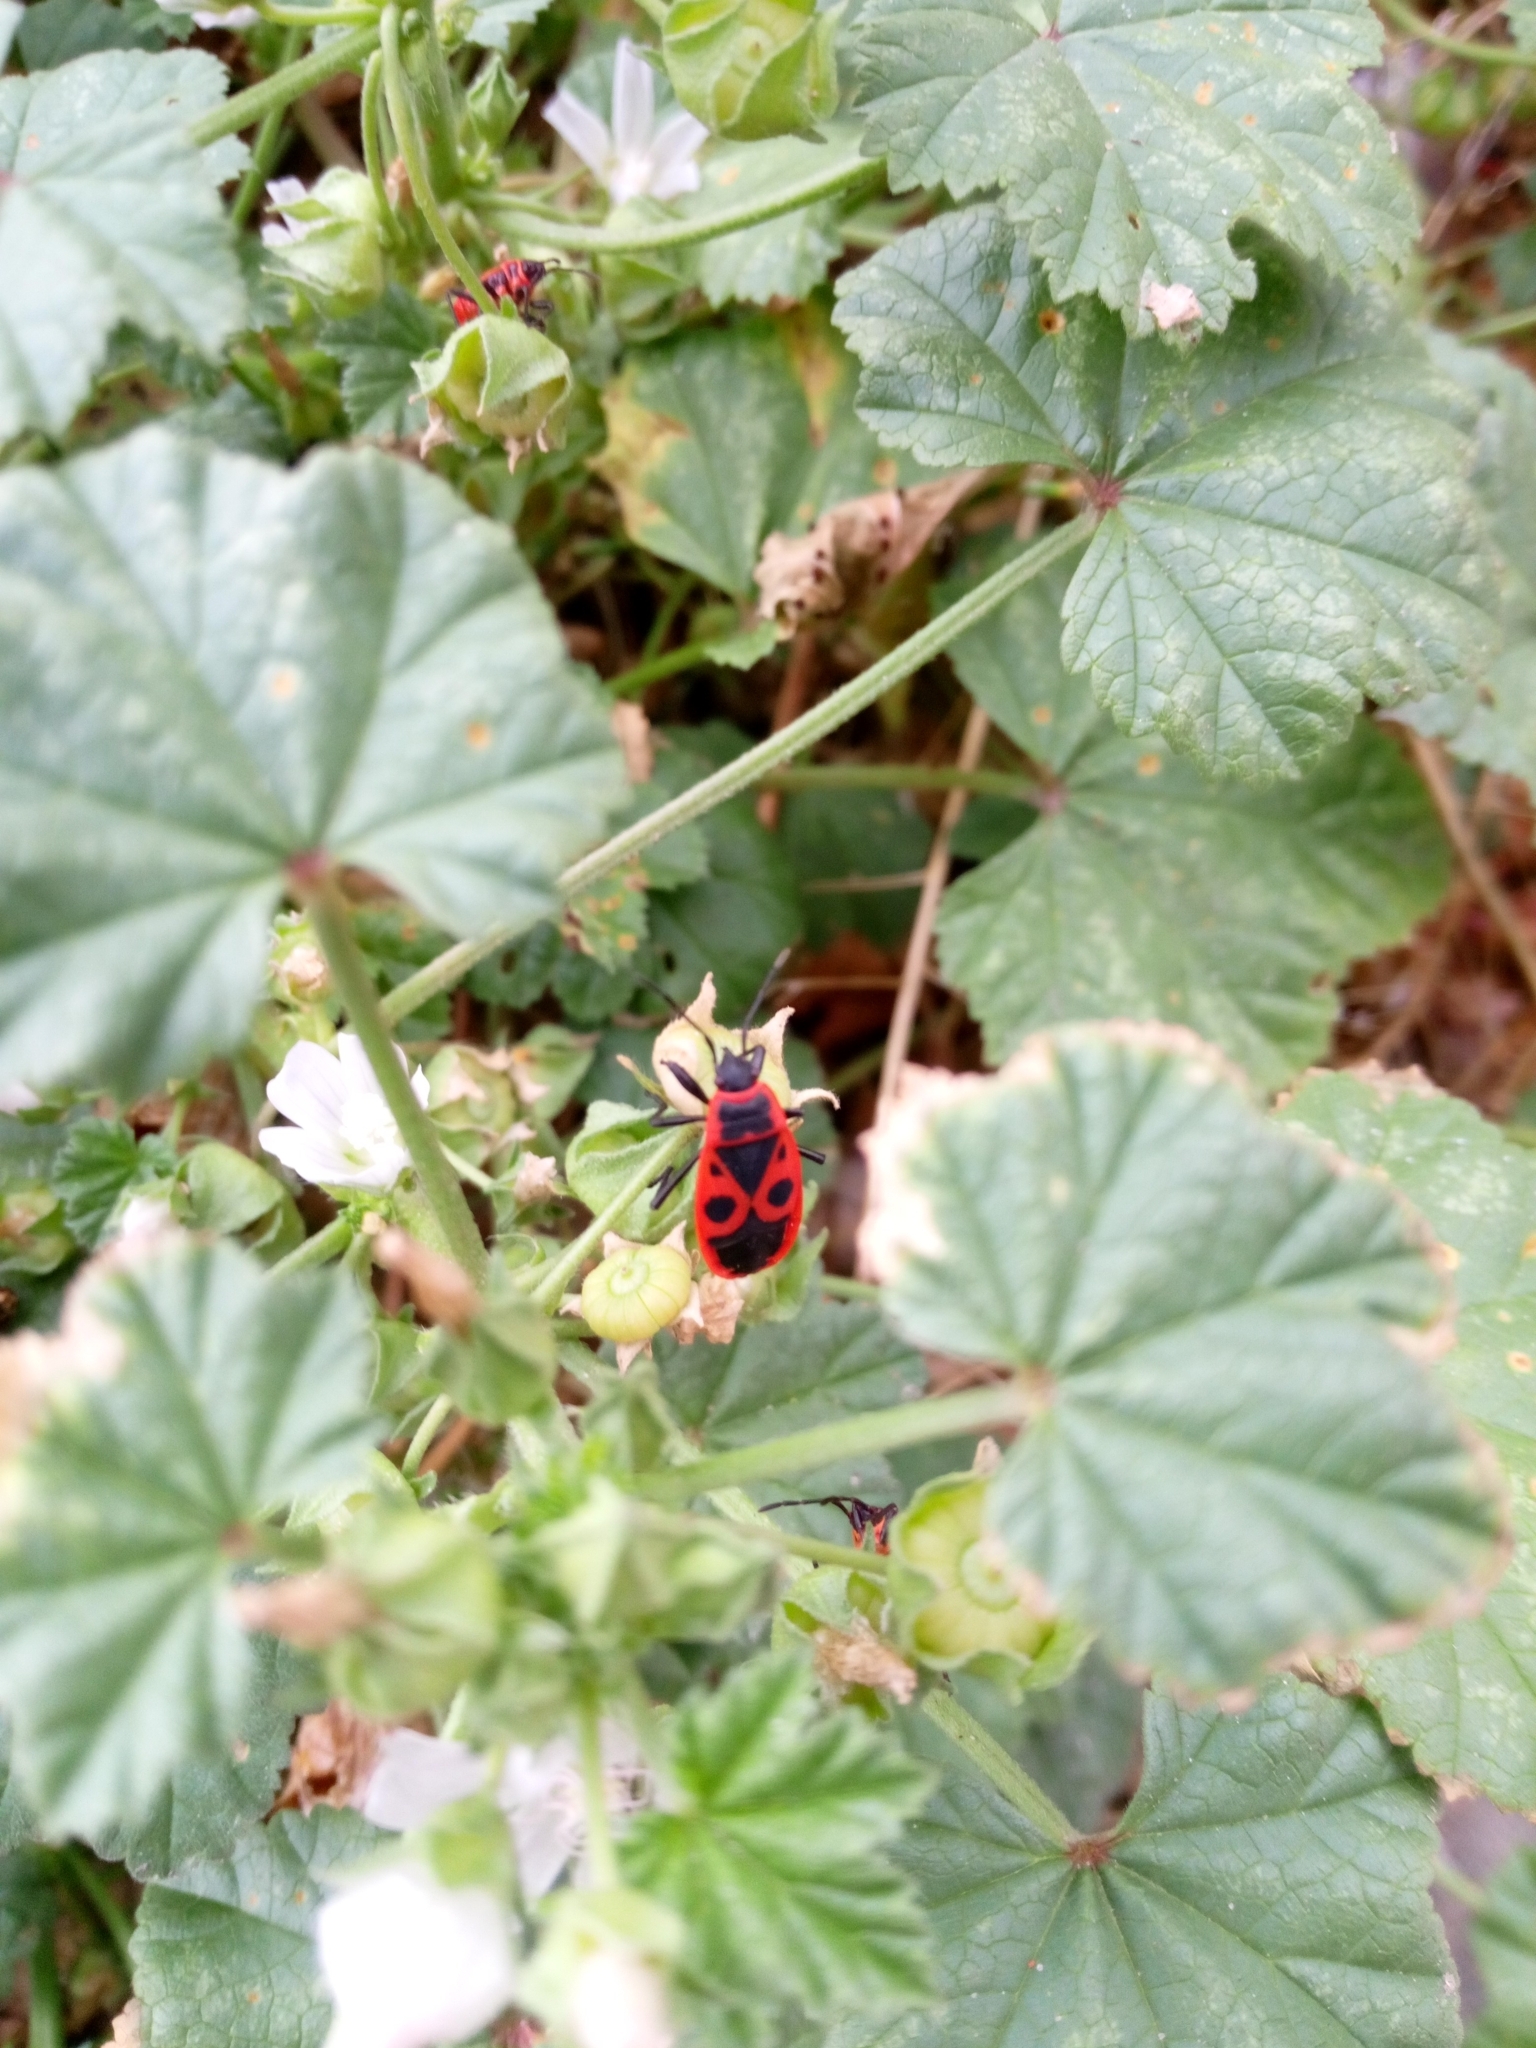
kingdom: Animalia
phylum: Arthropoda
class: Insecta
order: Hemiptera
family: Pyrrhocoridae
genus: Pyrrhocoris
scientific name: Pyrrhocoris apterus
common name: Firebug
